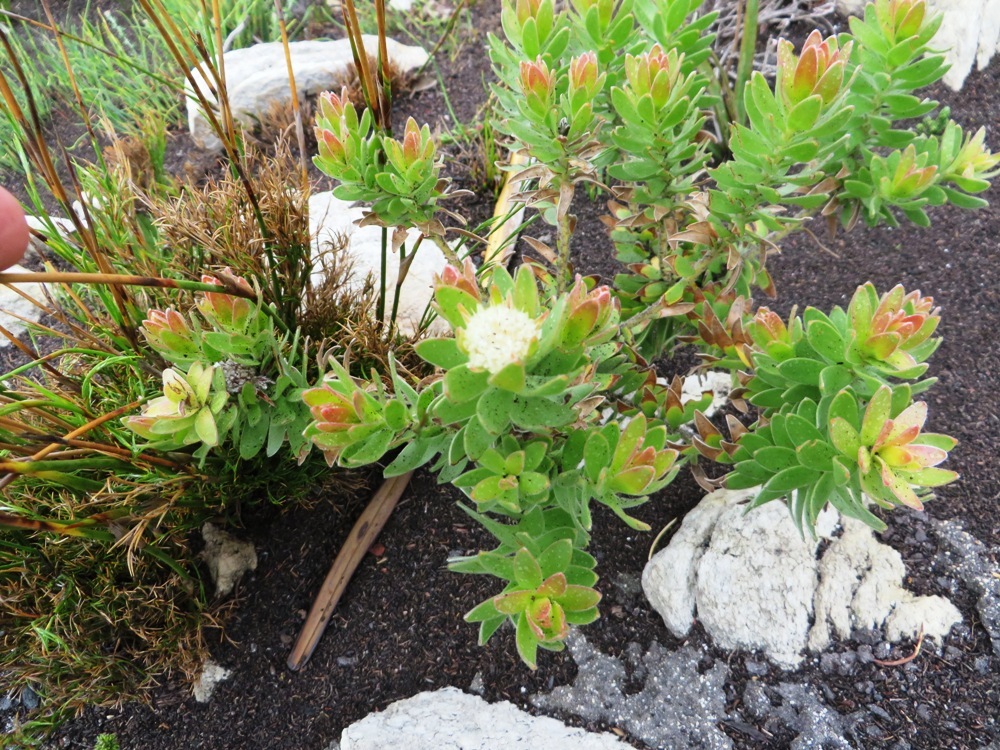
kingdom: Plantae
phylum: Tracheophyta
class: Magnoliopsida
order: Proteales
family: Proteaceae
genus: Diastella
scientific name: Diastella thymelaeoides
